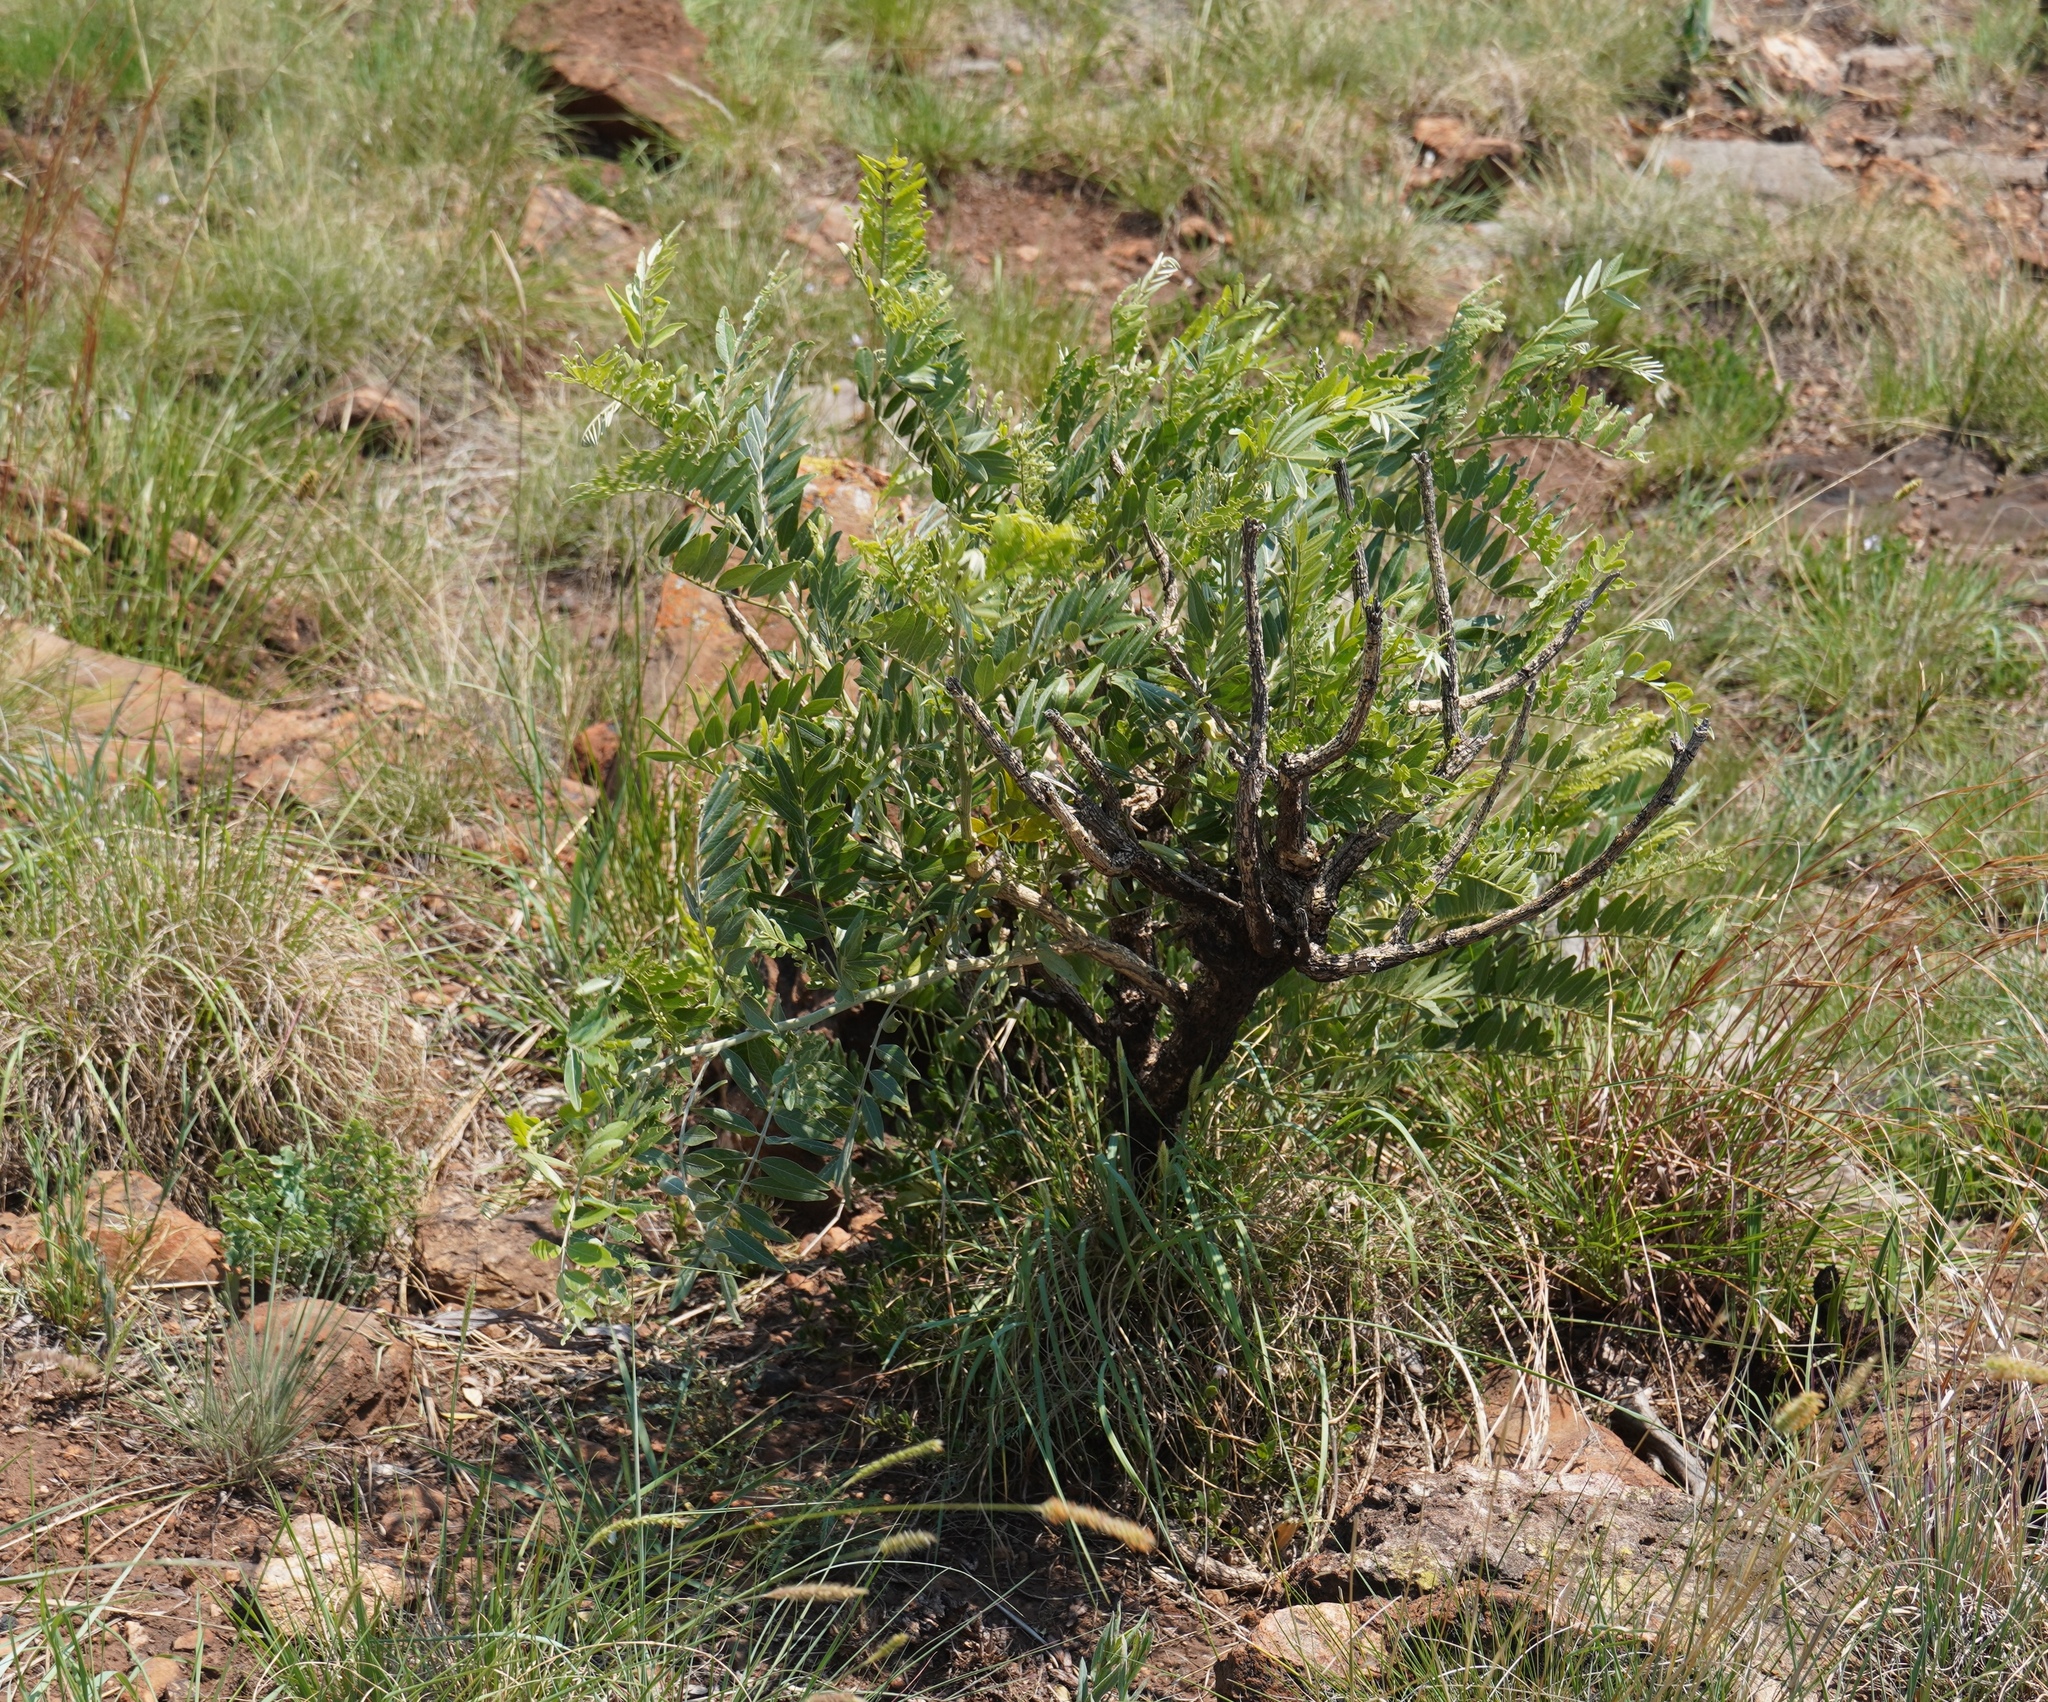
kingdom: Plantae
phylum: Tracheophyta
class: Magnoliopsida
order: Fabales
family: Fabaceae
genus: Mundulea
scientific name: Mundulea sericea
